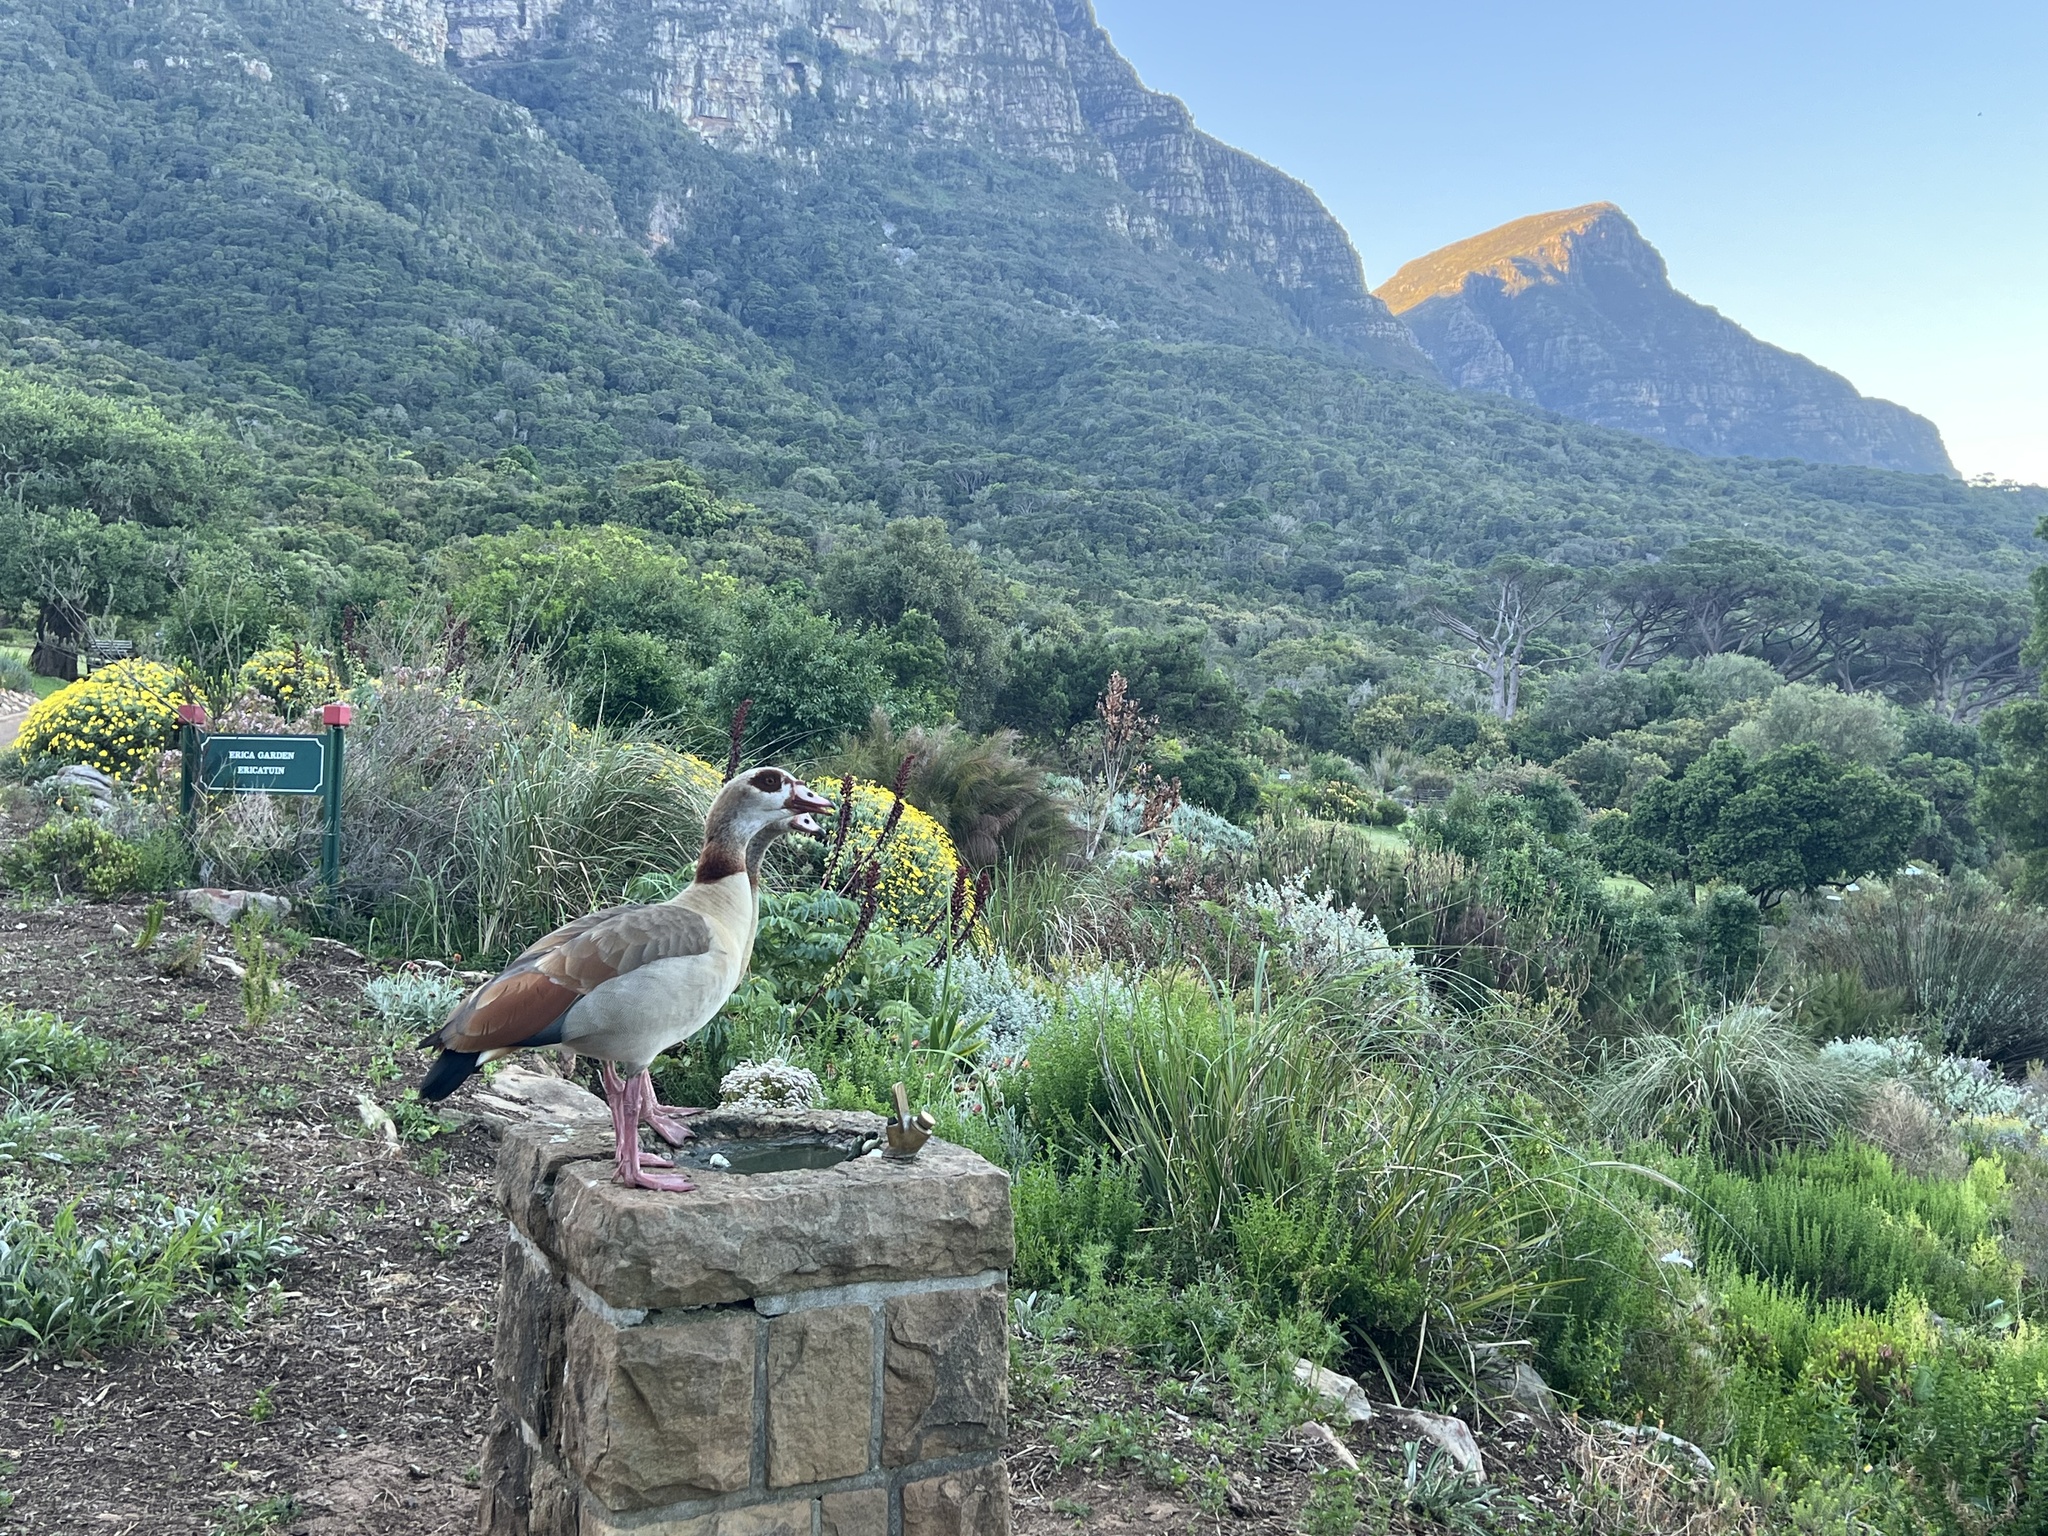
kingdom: Animalia
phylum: Chordata
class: Aves
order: Anseriformes
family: Anatidae
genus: Alopochen
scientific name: Alopochen aegyptiaca
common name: Egyptian goose
